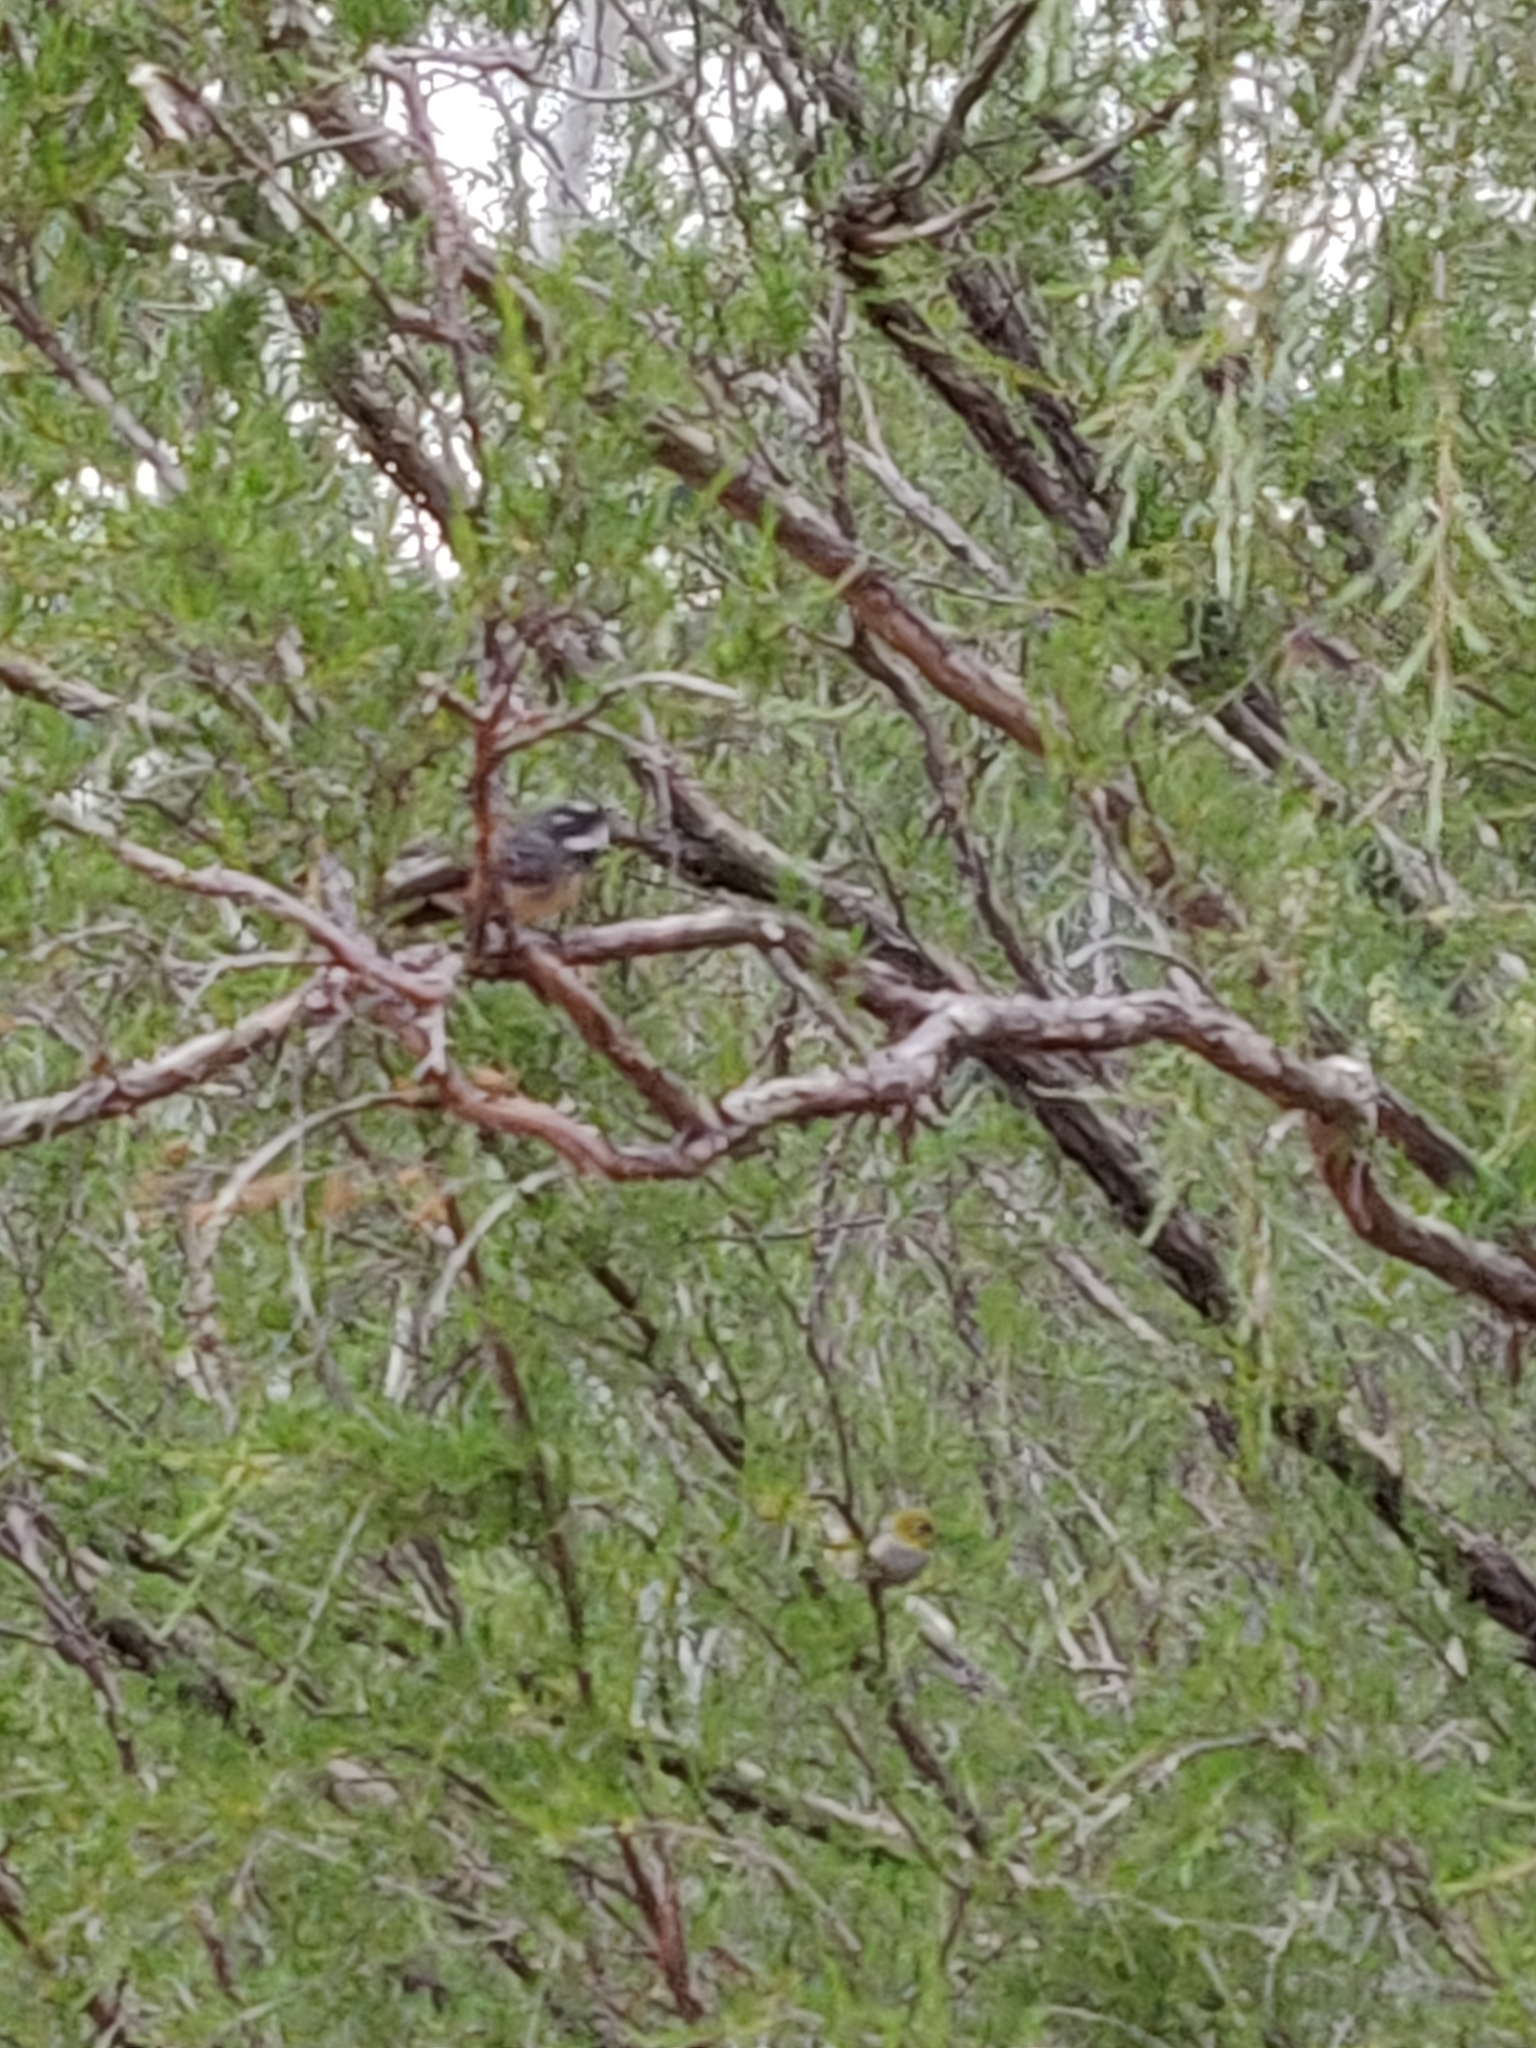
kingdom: Animalia
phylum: Chordata
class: Aves
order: Passeriformes
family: Rhipiduridae
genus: Rhipidura
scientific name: Rhipidura albiscapa
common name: Grey fantail
